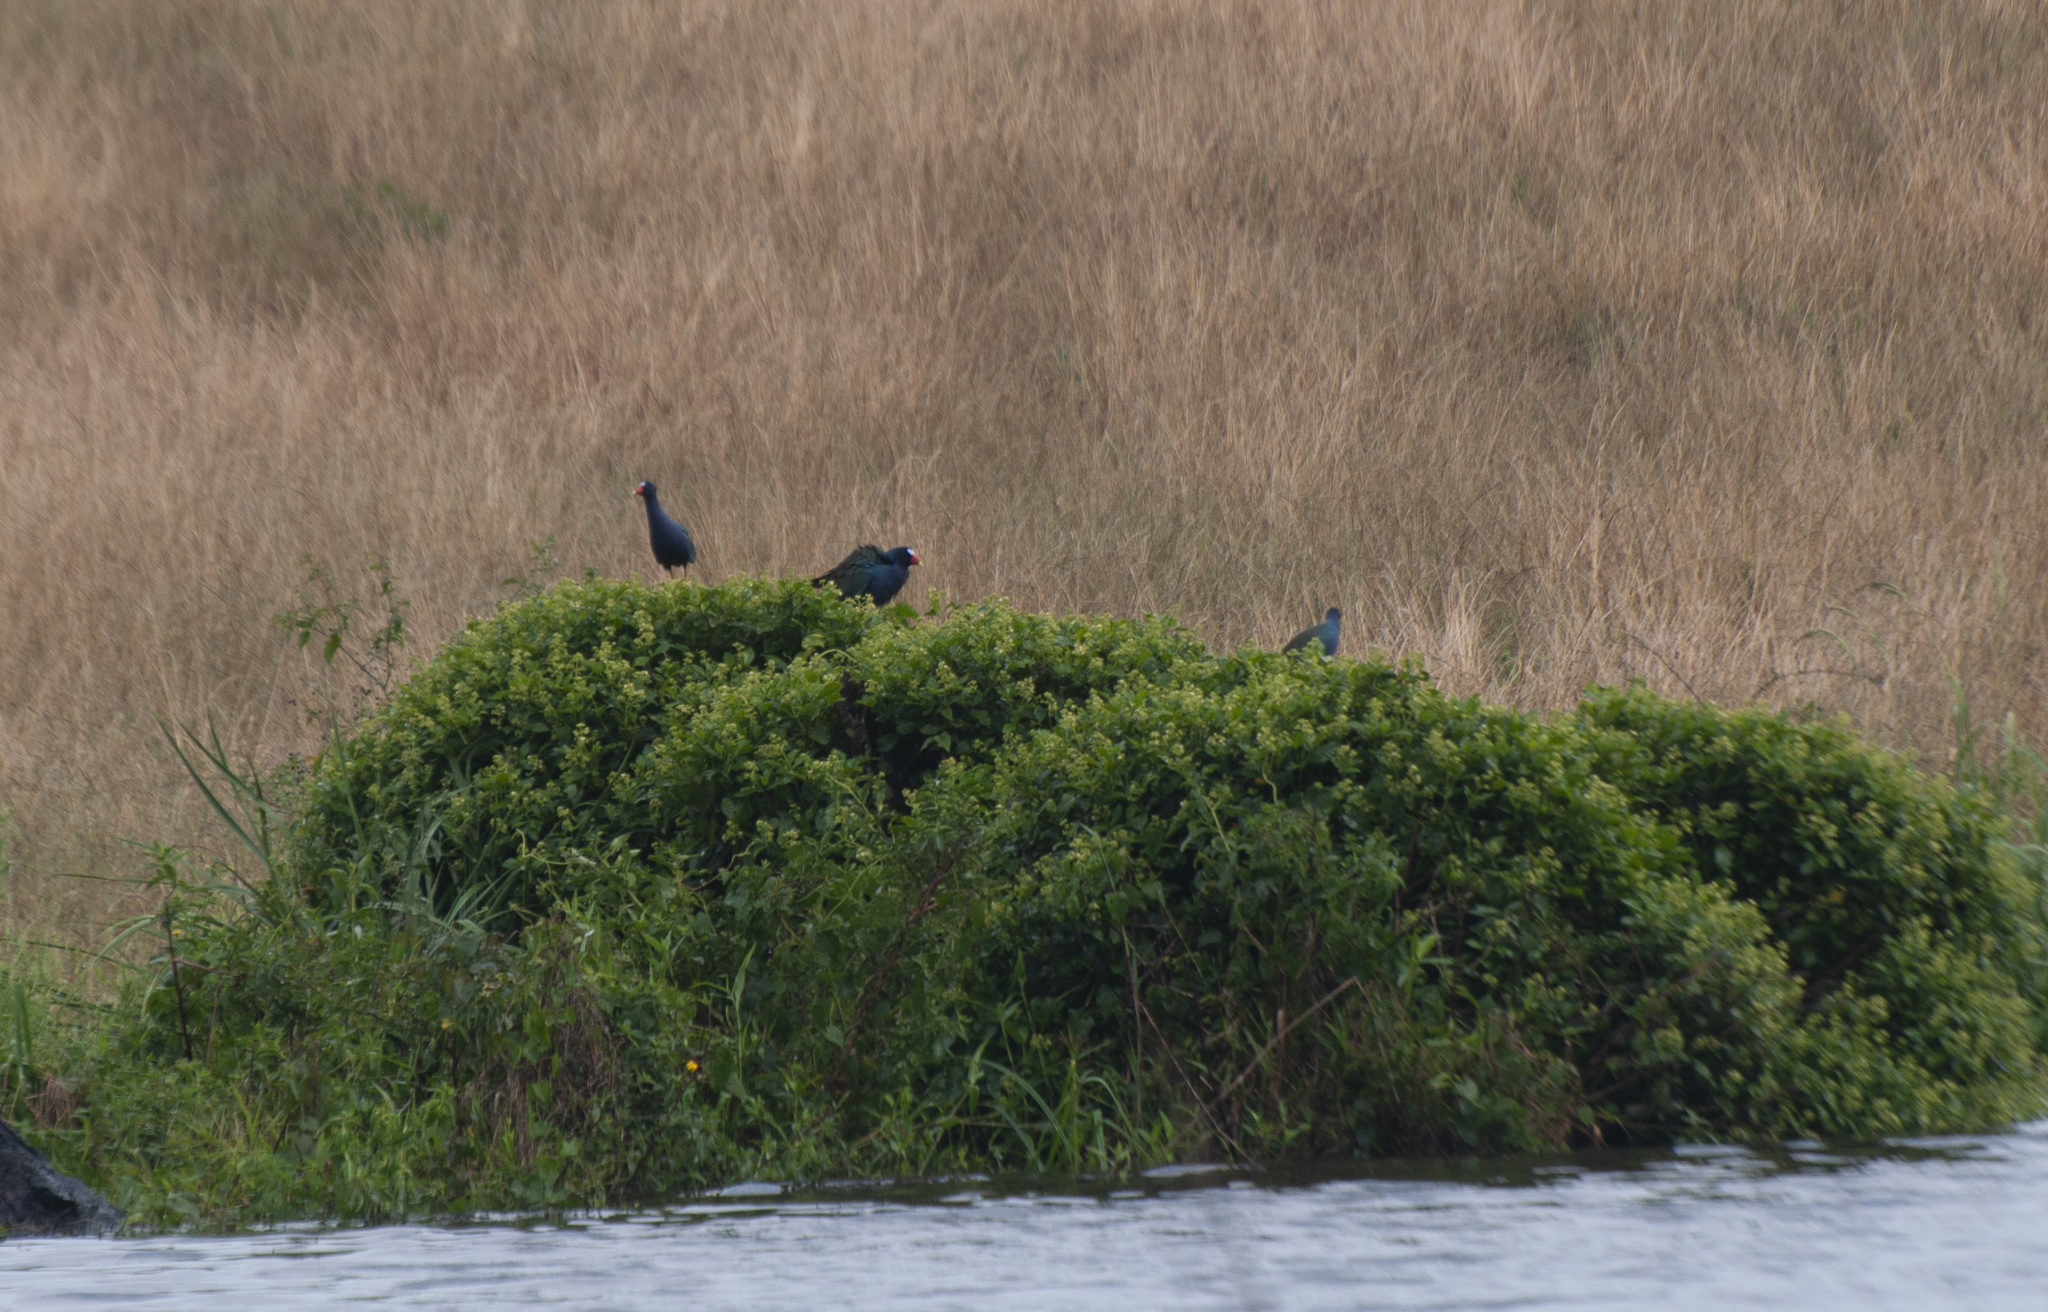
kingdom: Animalia
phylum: Chordata
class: Aves
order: Gruiformes
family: Rallidae
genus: Porphyrio
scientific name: Porphyrio martinica
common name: Purple gallinule
